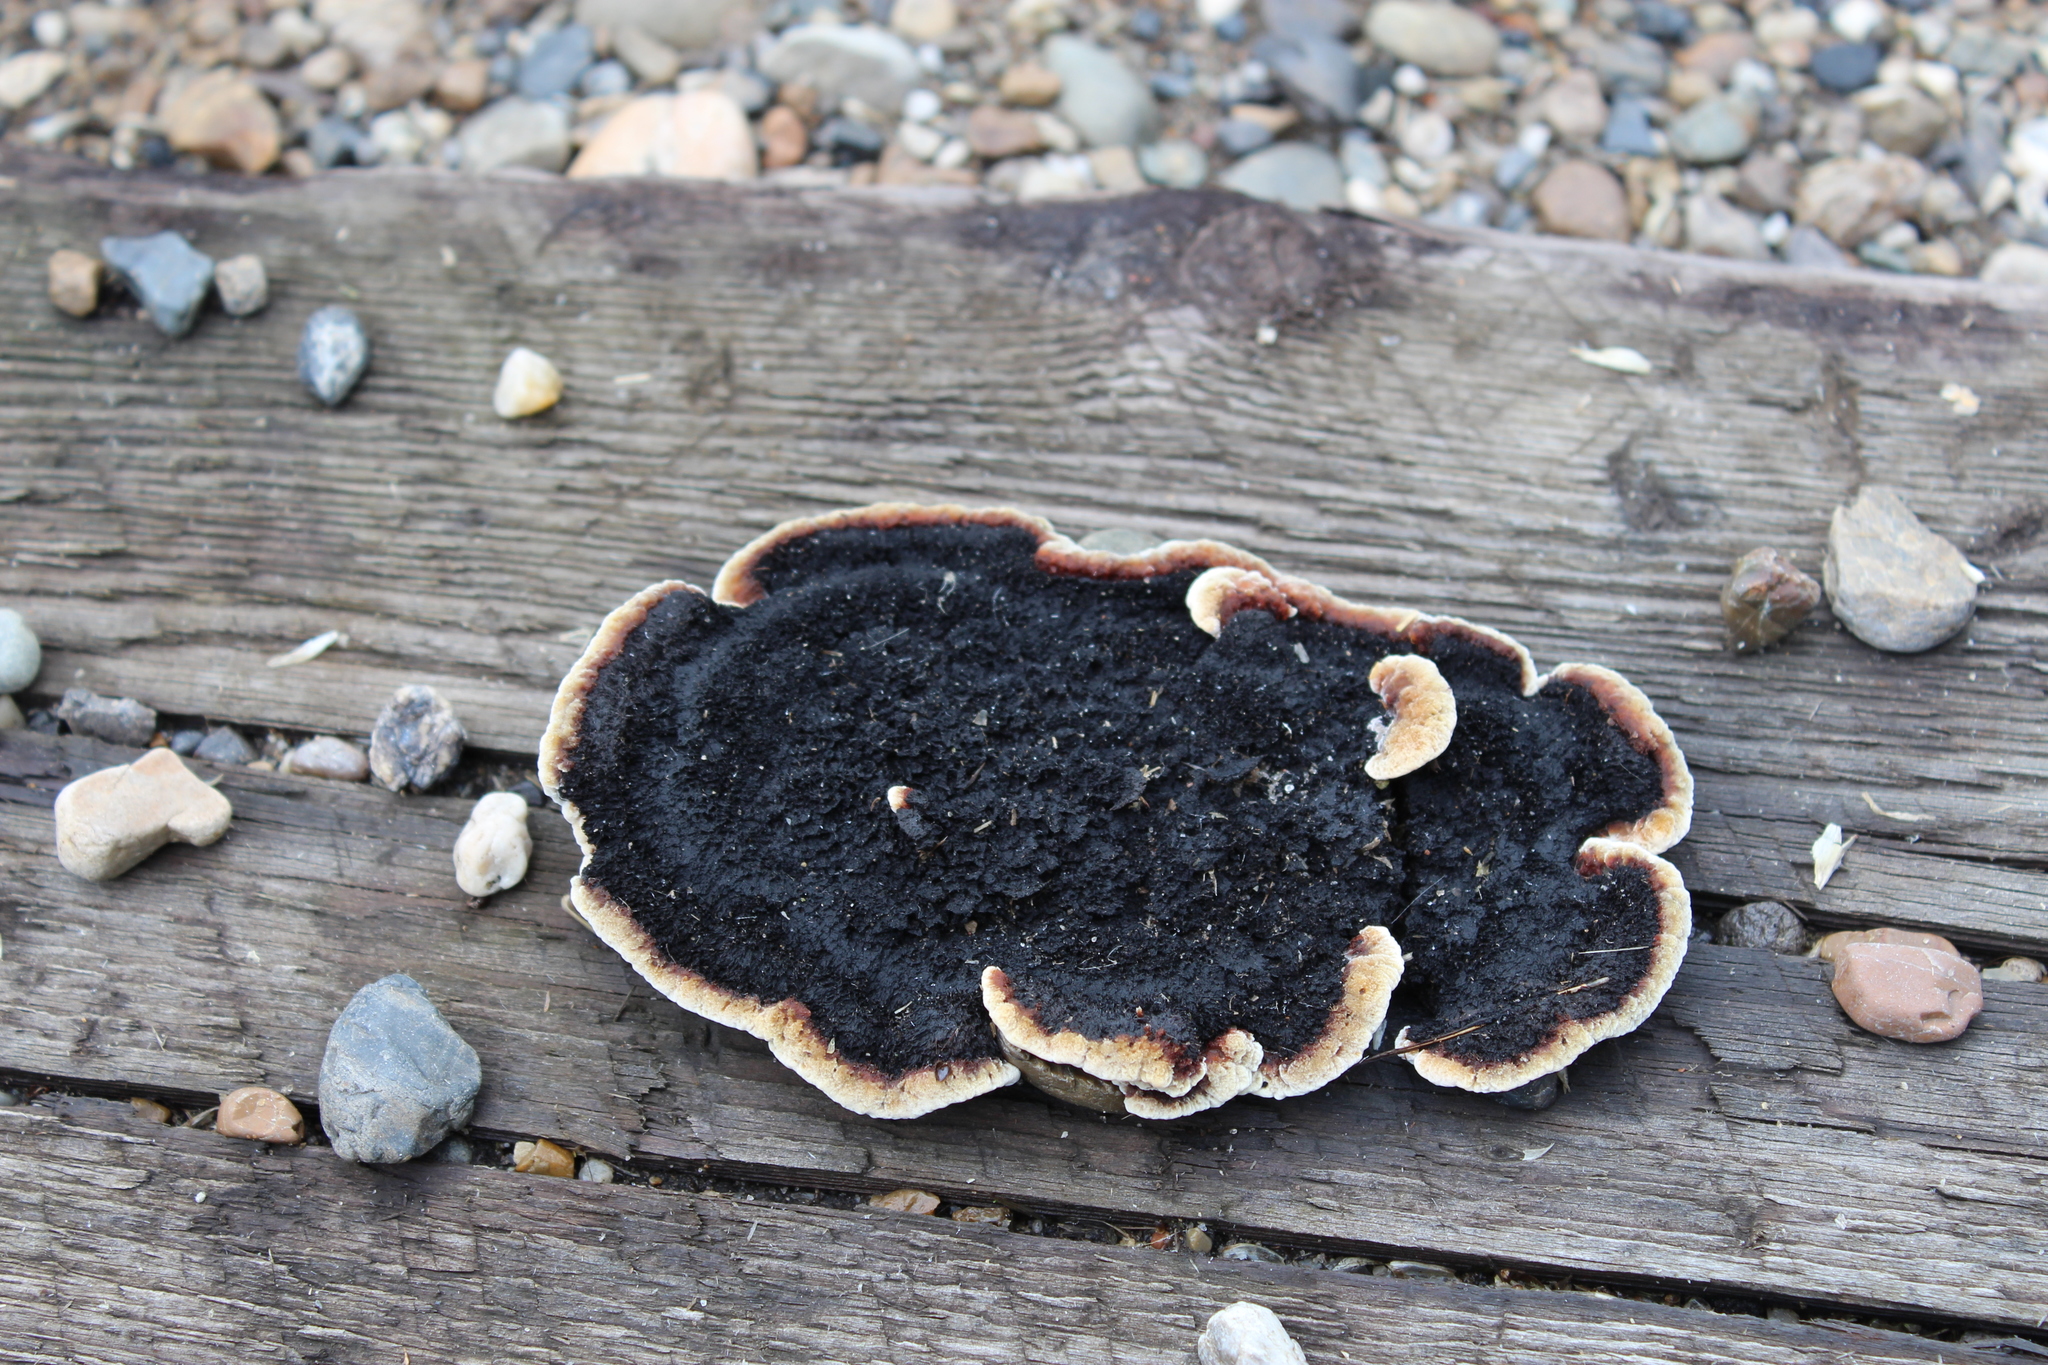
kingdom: Fungi
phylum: Basidiomycota
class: Agaricomycetes
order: Gloeophyllales
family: Gloeophyllaceae
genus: Gloeophyllum
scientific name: Gloeophyllum sepiarium
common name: Conifer mazegill
